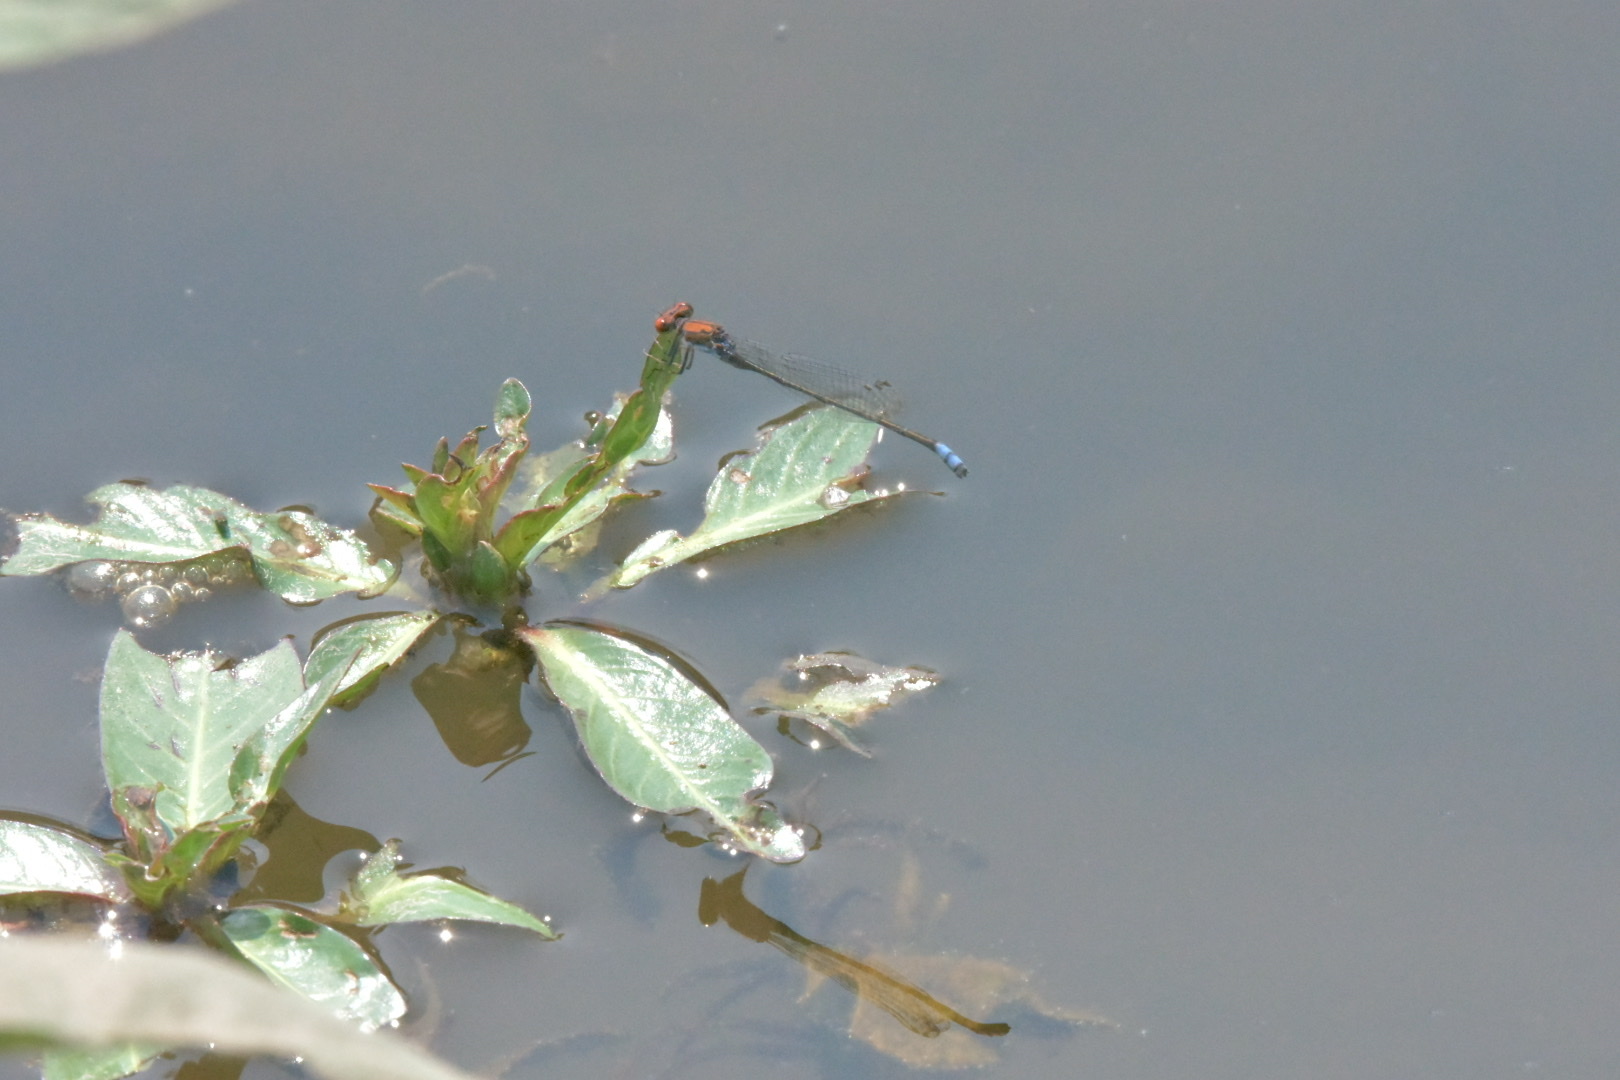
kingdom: Animalia
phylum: Arthropoda
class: Insecta
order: Odonata
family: Coenagrionidae
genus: Pseudagrion
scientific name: Pseudagrion massaicum
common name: Masai sprite
